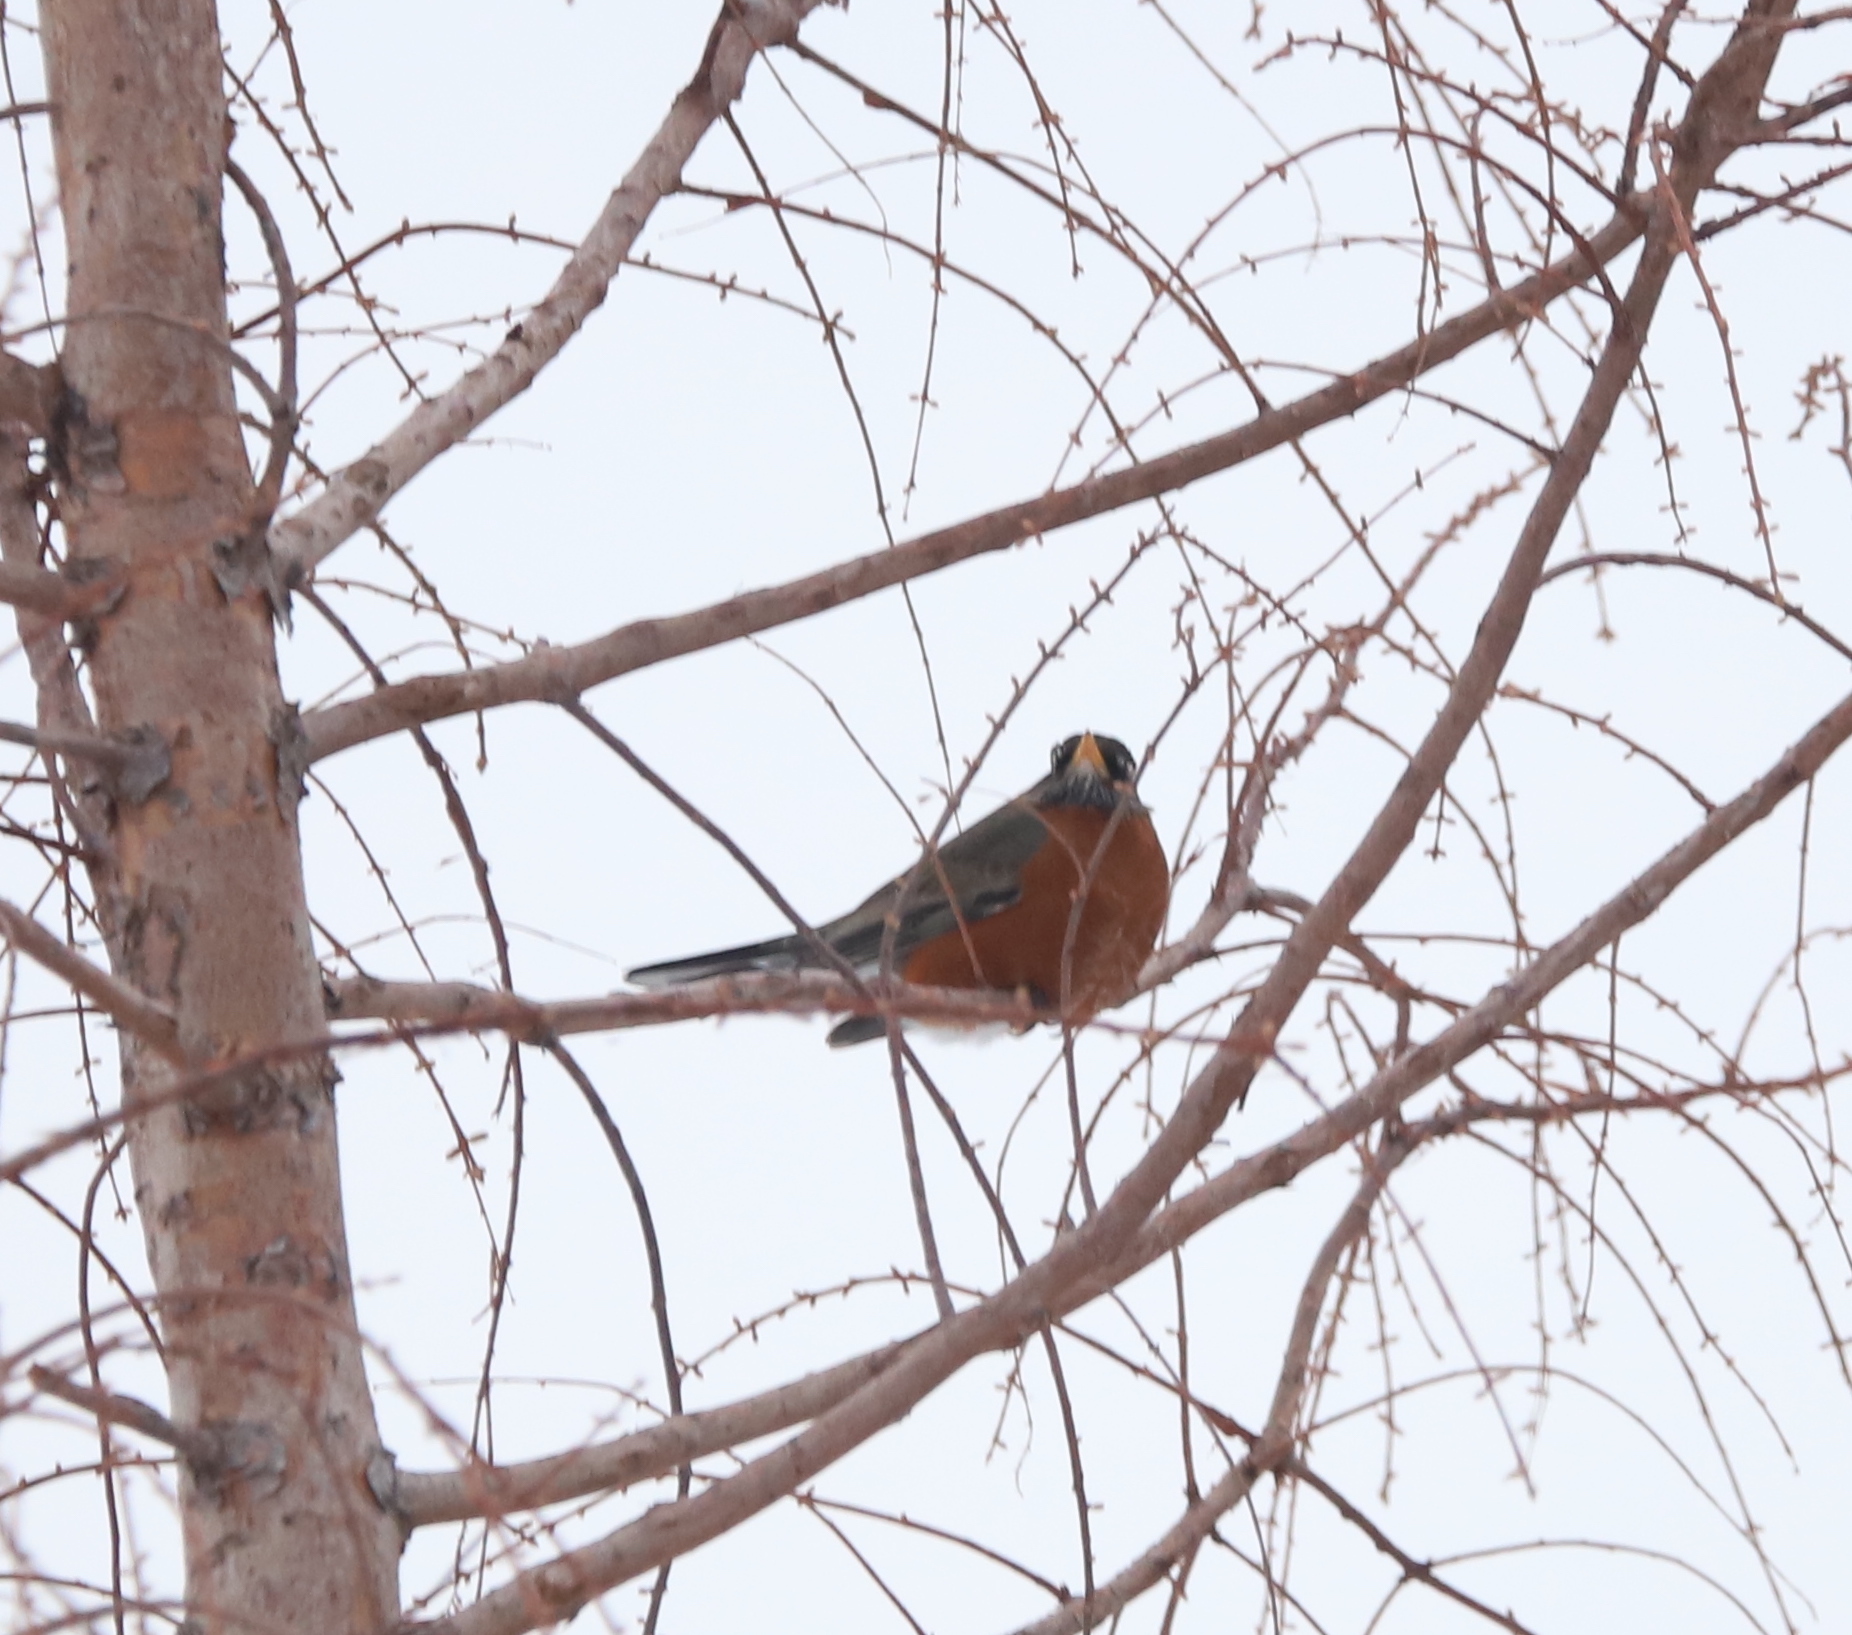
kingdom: Animalia
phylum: Chordata
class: Aves
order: Passeriformes
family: Turdidae
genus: Turdus
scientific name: Turdus migratorius
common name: American robin
